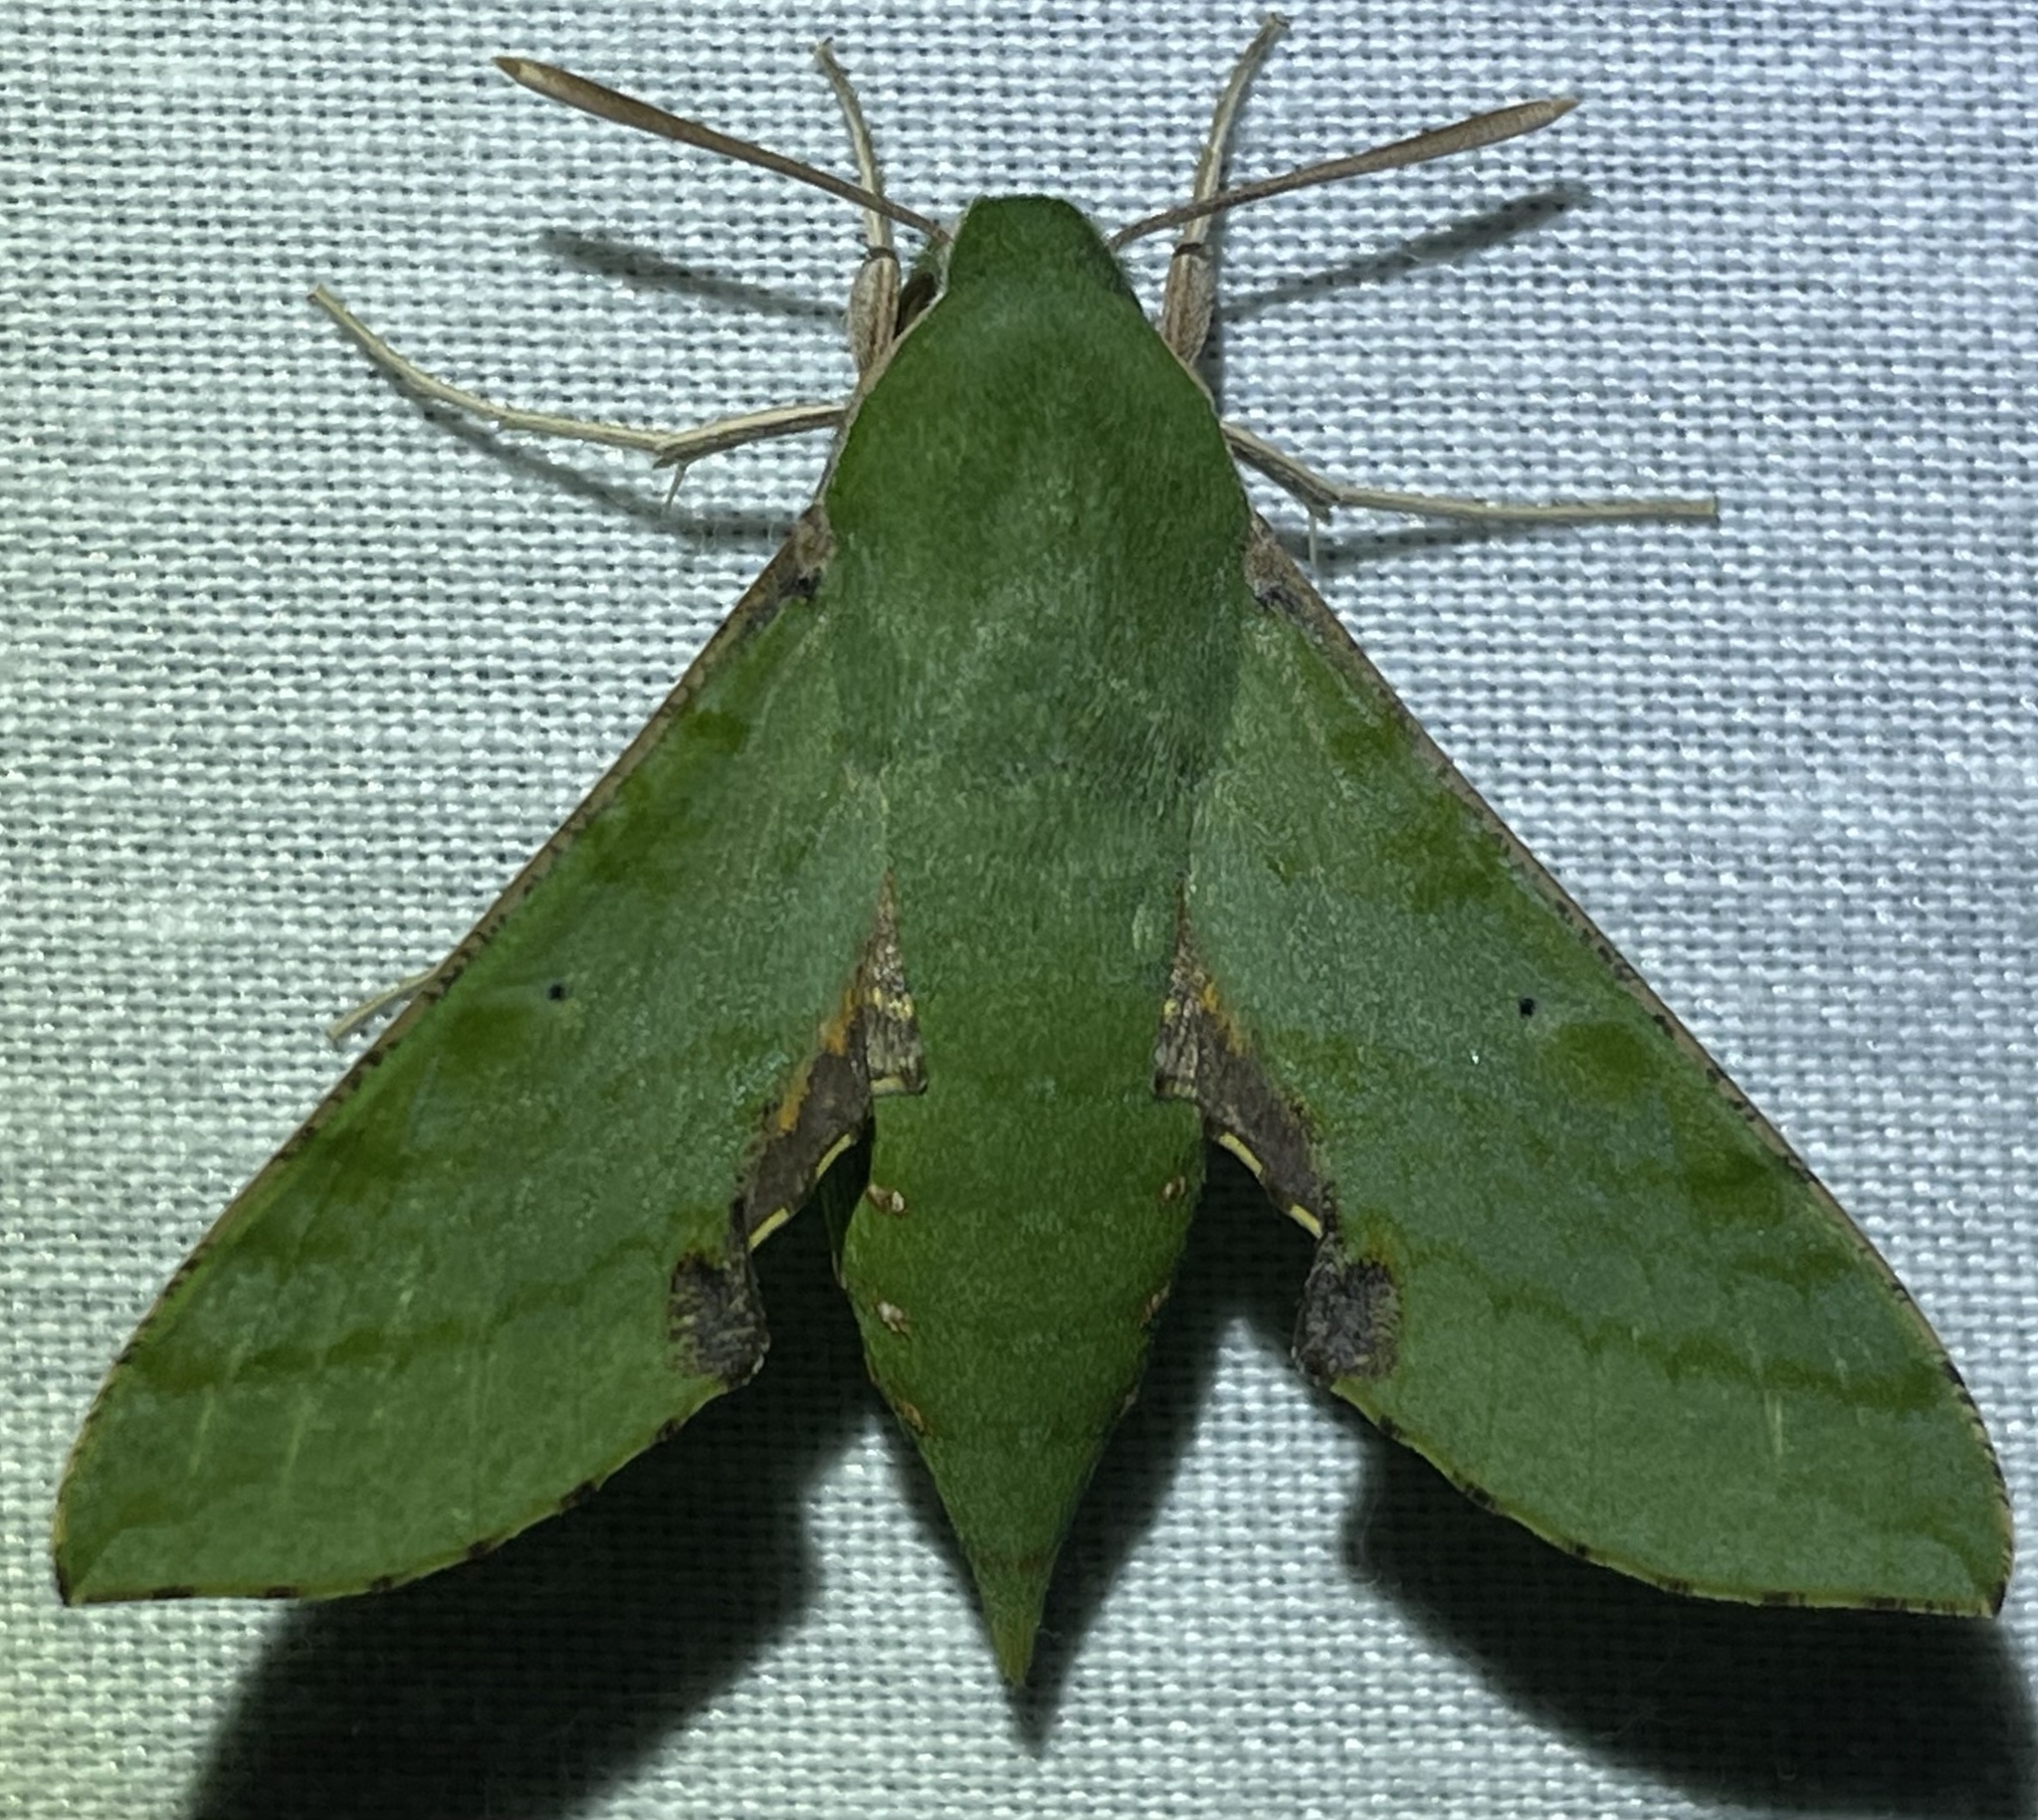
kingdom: Animalia
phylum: Arthropoda
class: Insecta
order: Lepidoptera
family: Sphingidae
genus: Basiothia
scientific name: Basiothia medea
